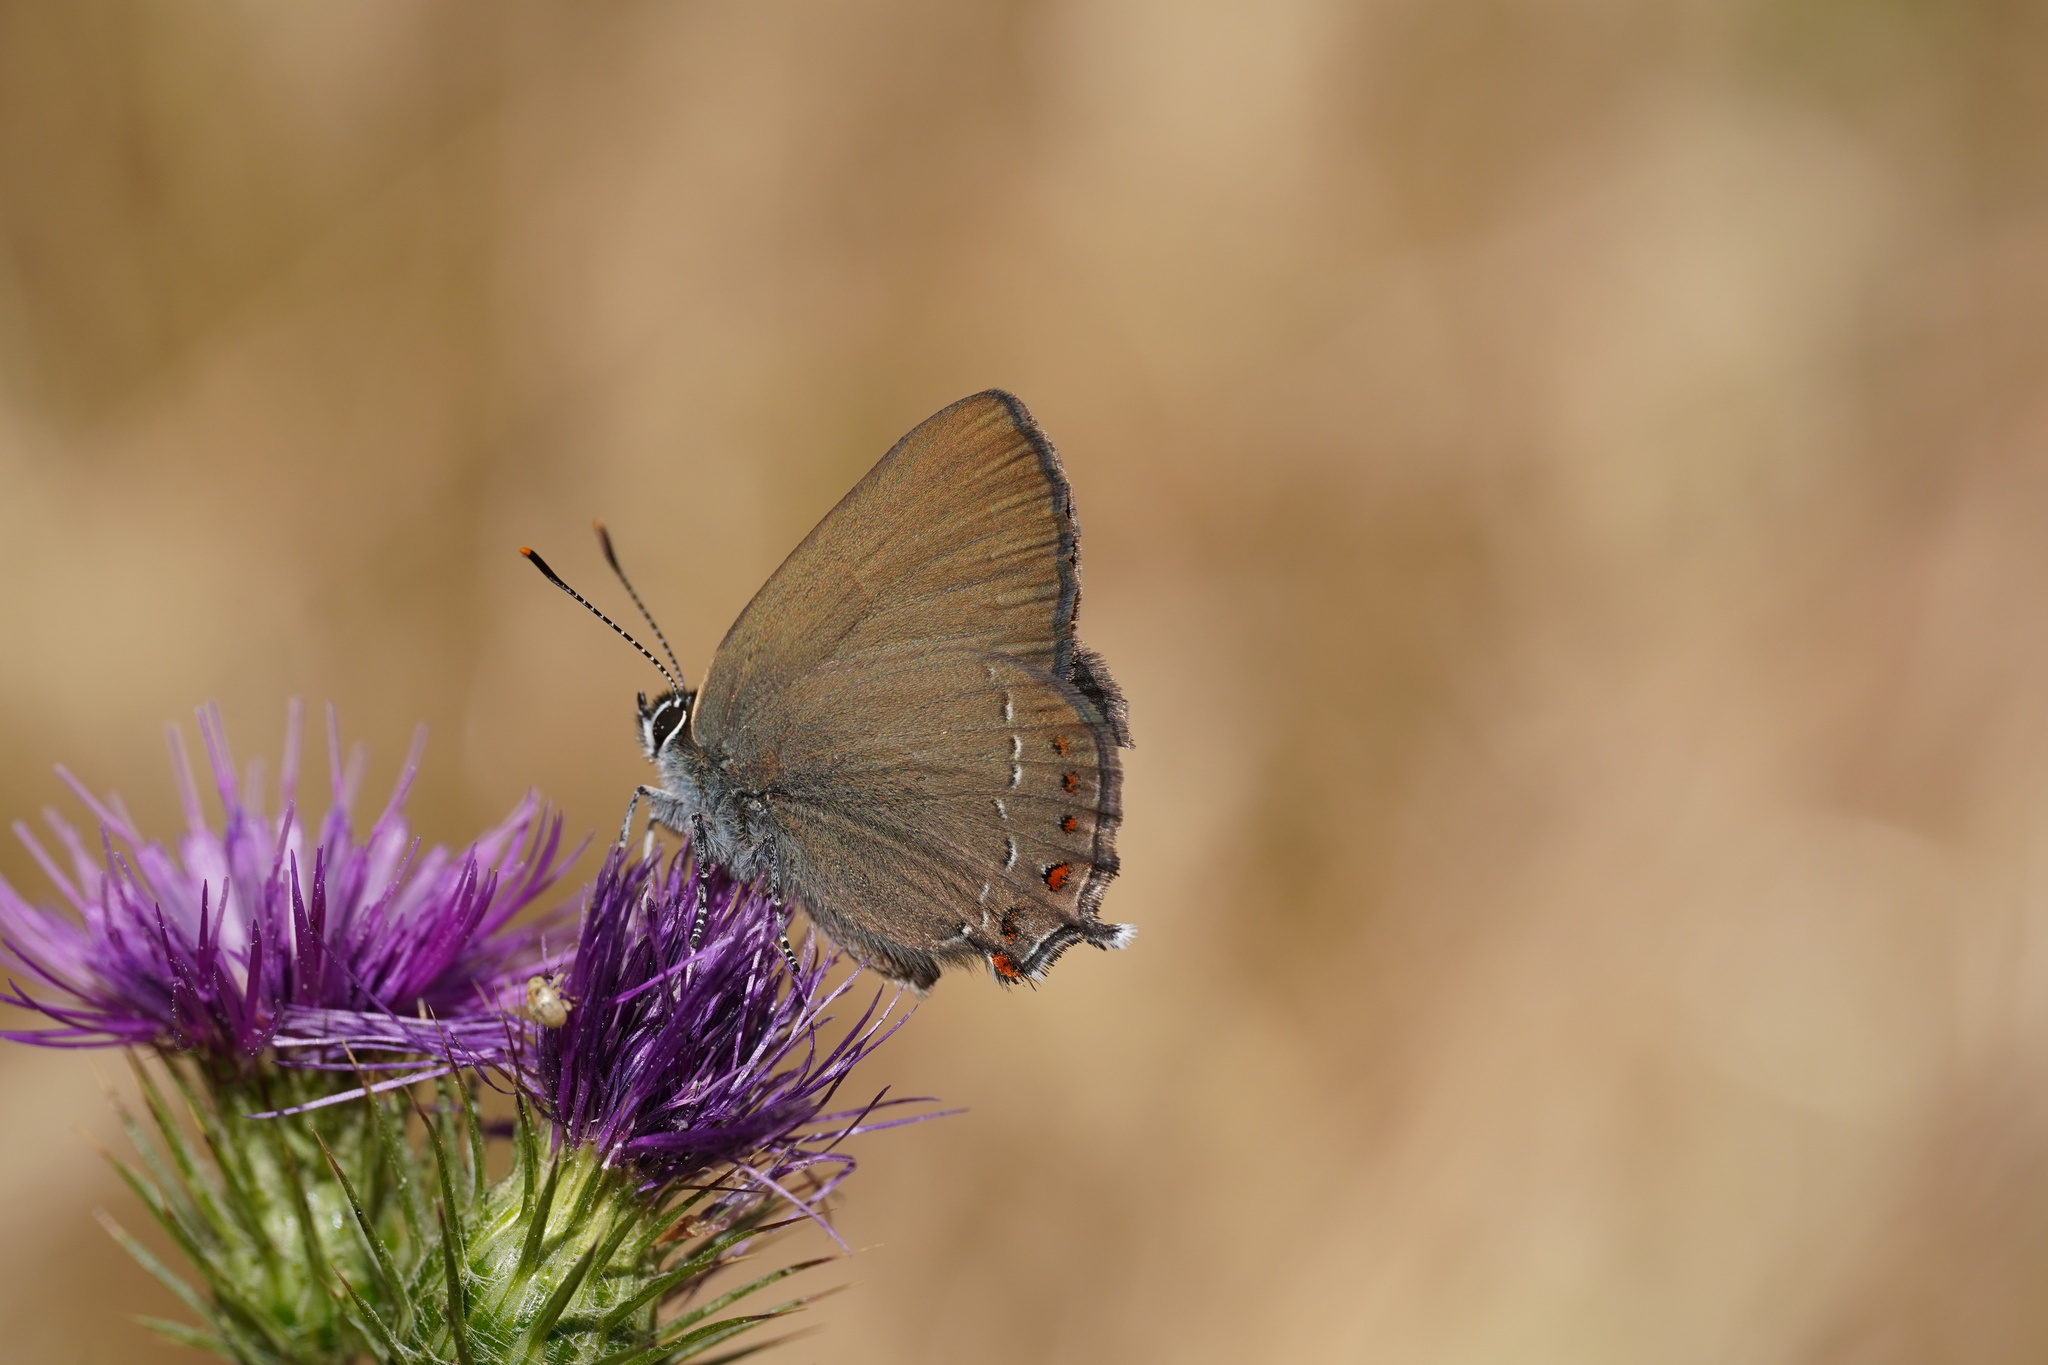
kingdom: Animalia
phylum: Arthropoda
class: Insecta
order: Lepidoptera
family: Lycaenidae
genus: Fixsenia
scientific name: Fixsenia esculi
